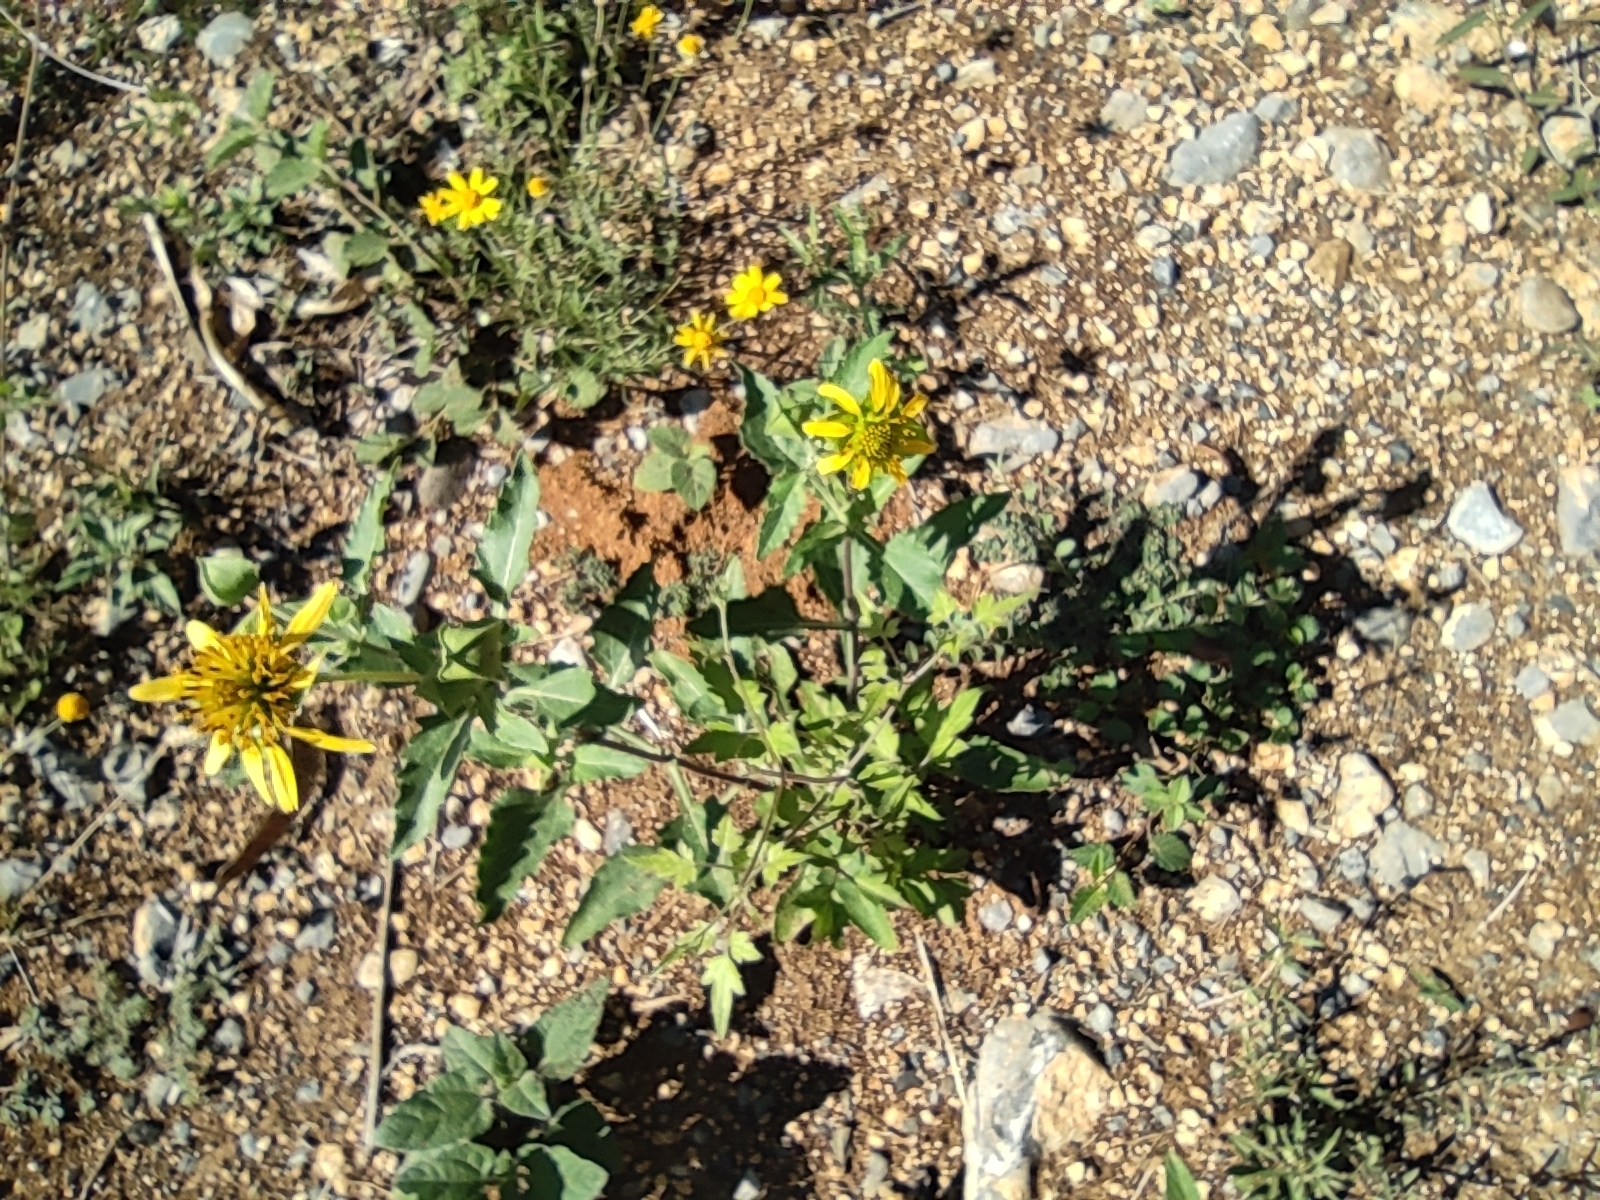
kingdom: Plantae
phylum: Tracheophyta
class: Magnoliopsida
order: Asterales
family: Asteraceae
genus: Tetragonotheca
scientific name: Tetragonotheca texana
